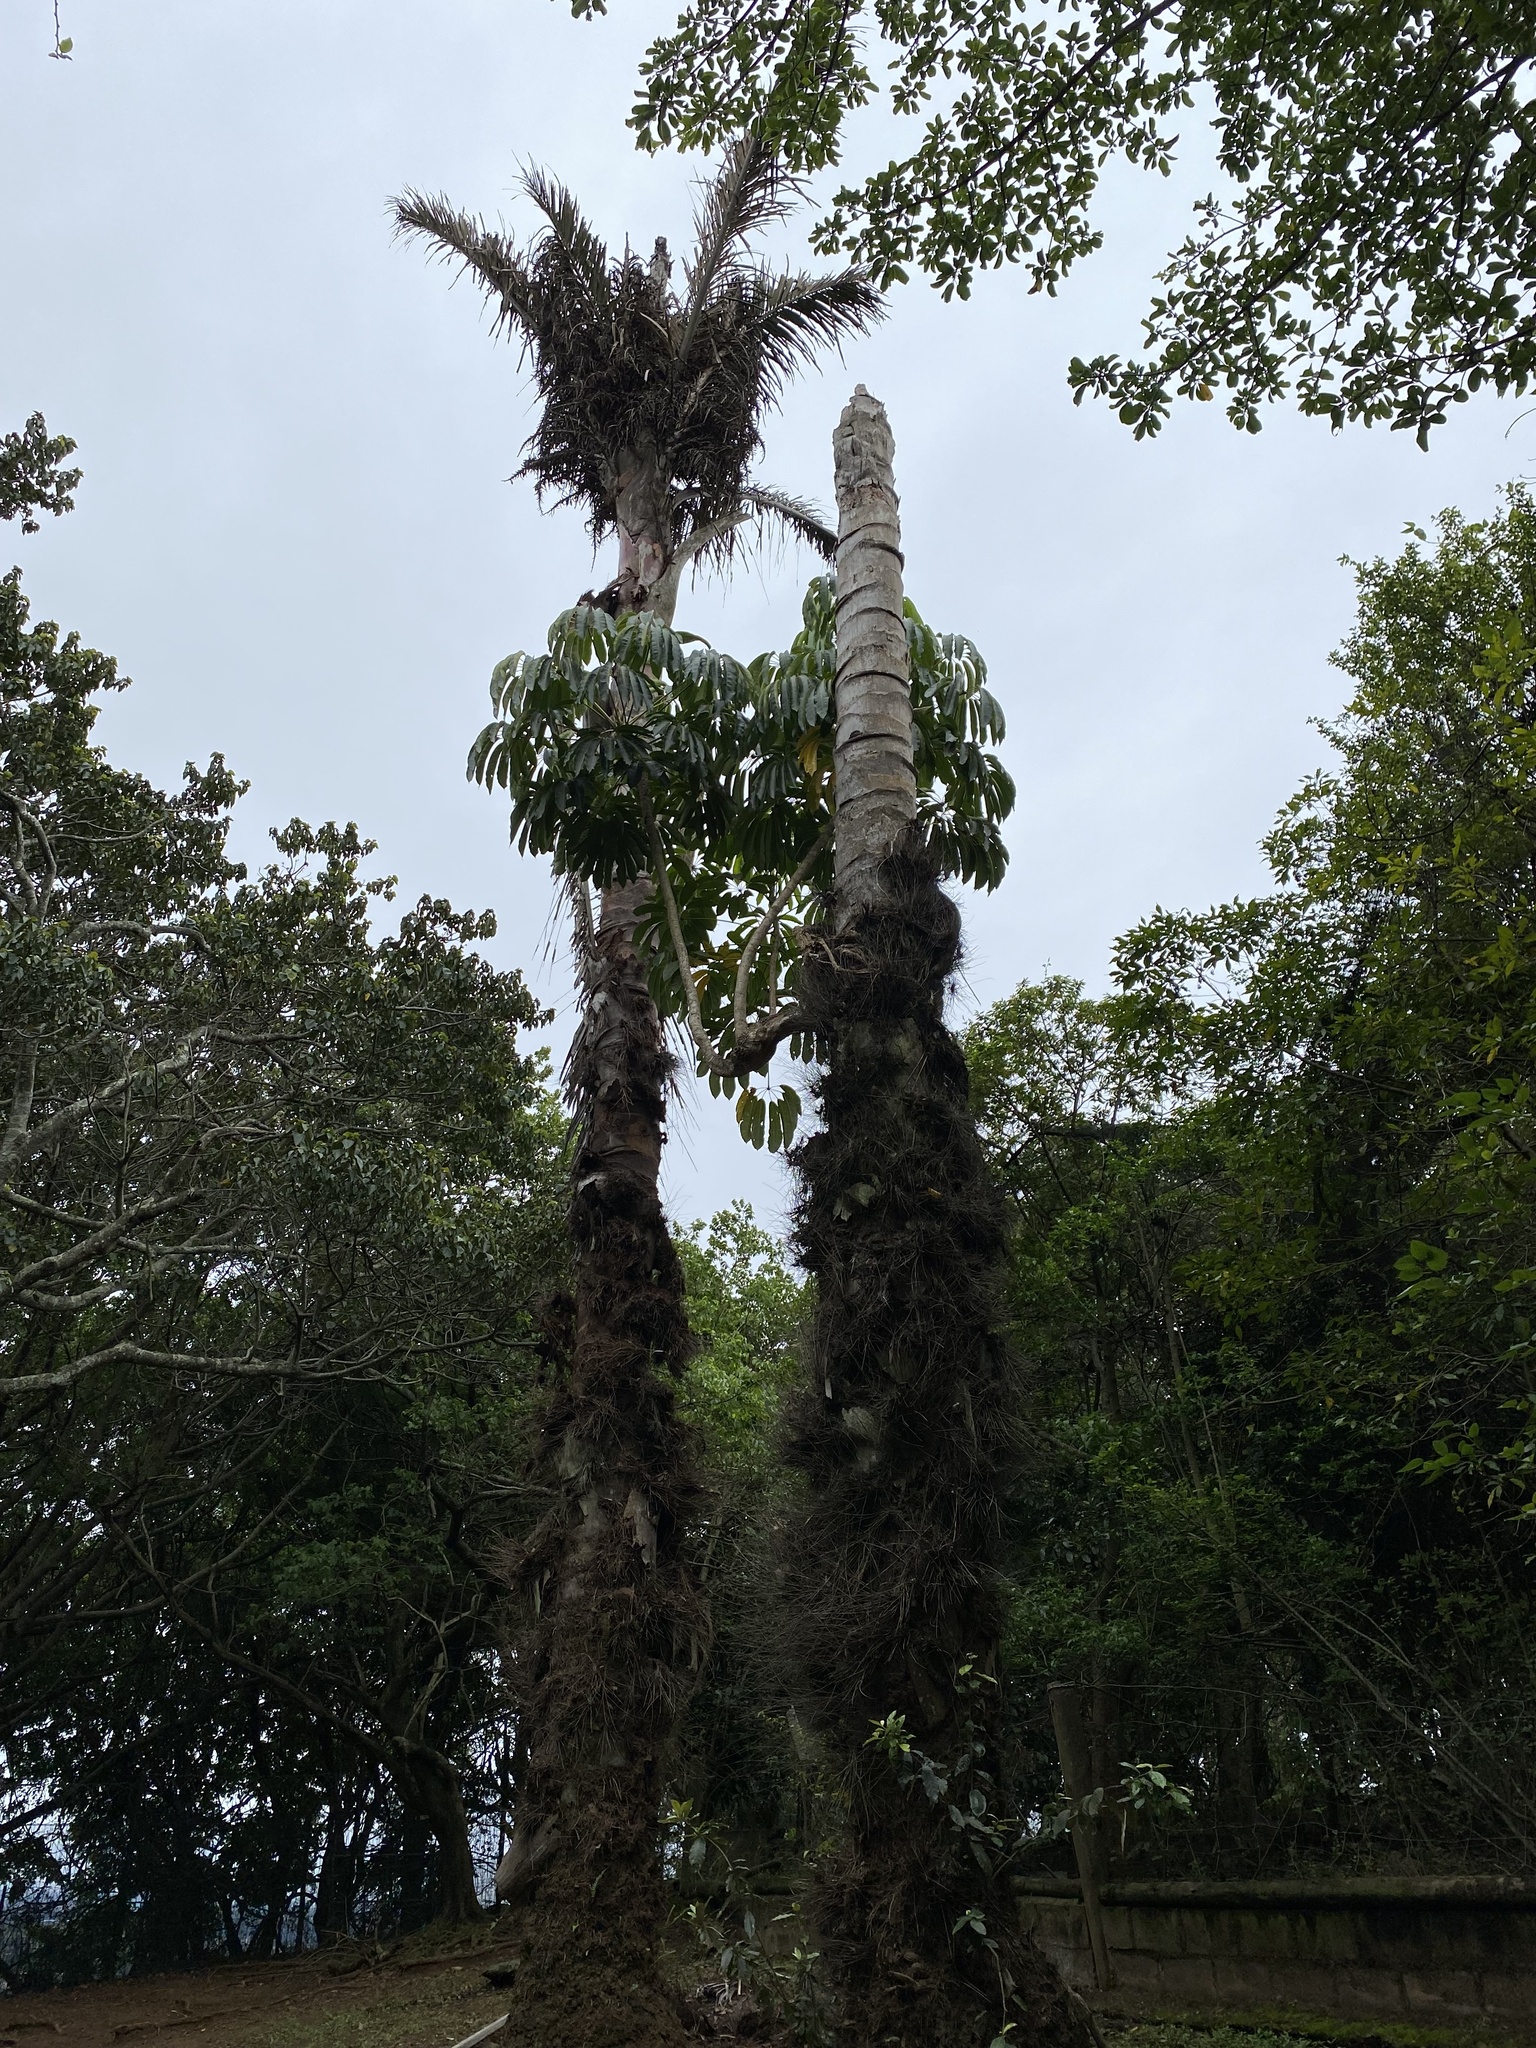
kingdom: Plantae
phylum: Tracheophyta
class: Liliopsida
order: Arecales
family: Arecaceae
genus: Raphia
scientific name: Raphia australis
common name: Giant palm
